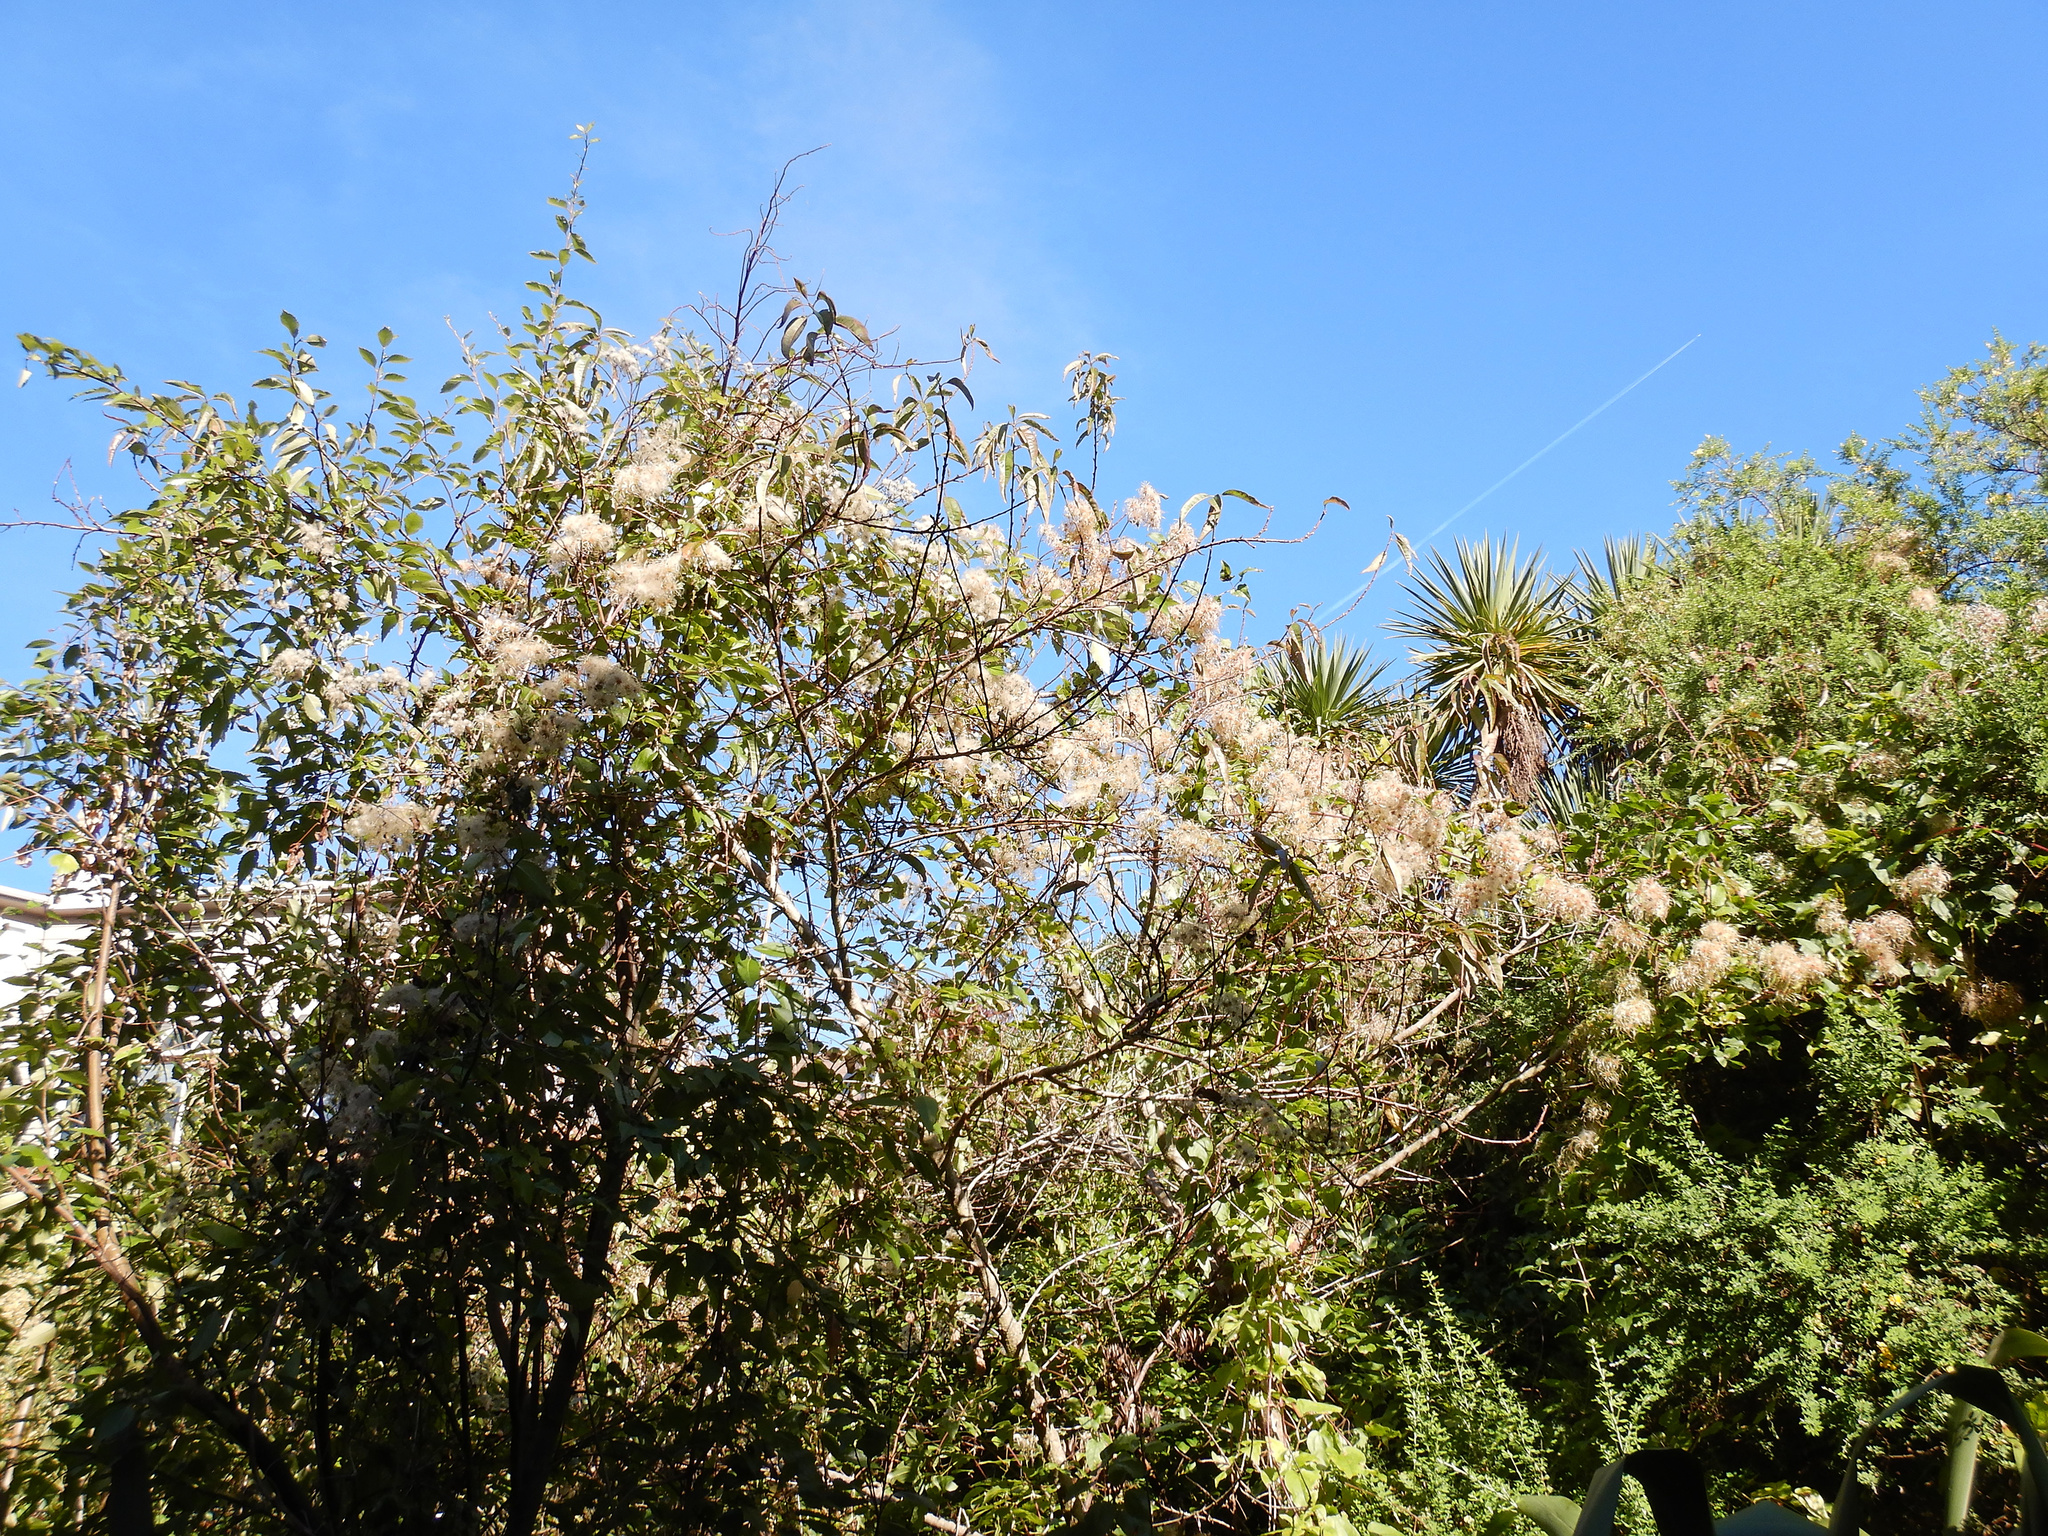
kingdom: Plantae
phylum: Tracheophyta
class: Magnoliopsida
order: Ranunculales
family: Ranunculaceae
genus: Clematis
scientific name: Clematis vitalba
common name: Evergreen clematis
